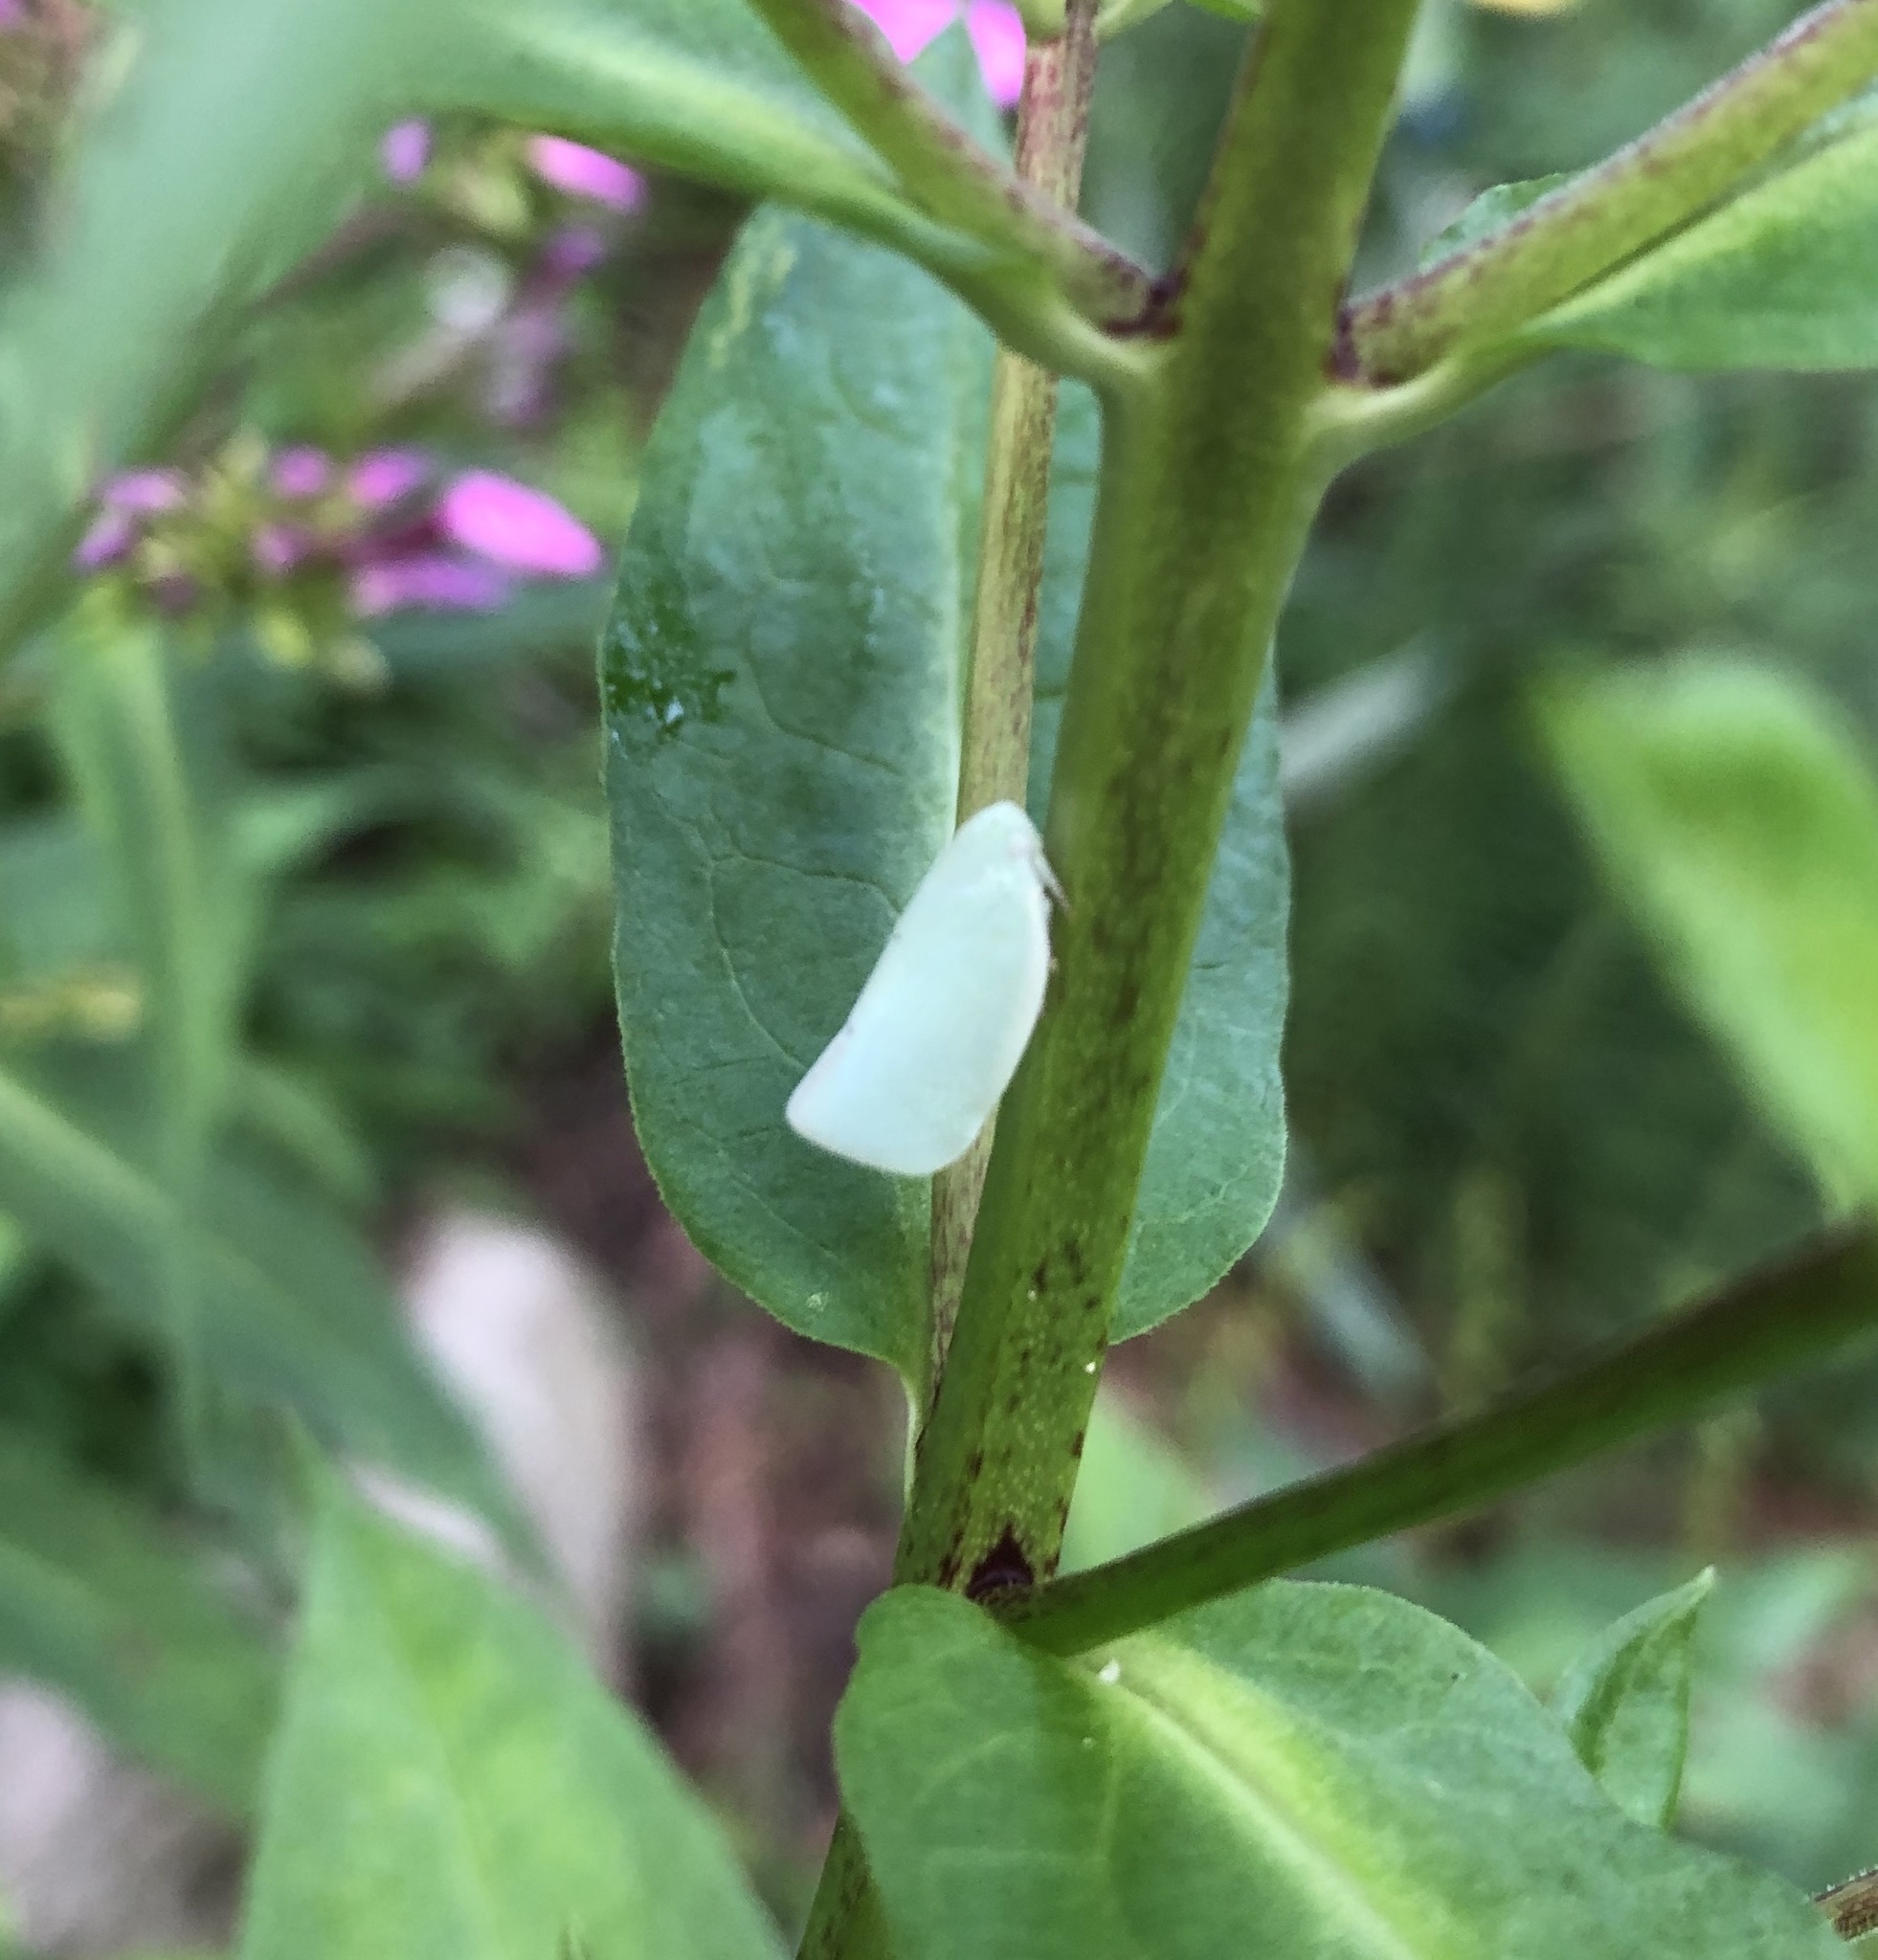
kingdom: Animalia
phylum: Arthropoda
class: Insecta
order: Hemiptera
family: Flatidae
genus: Flatormenis
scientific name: Flatormenis proxima
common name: Northern flatid planthopper
